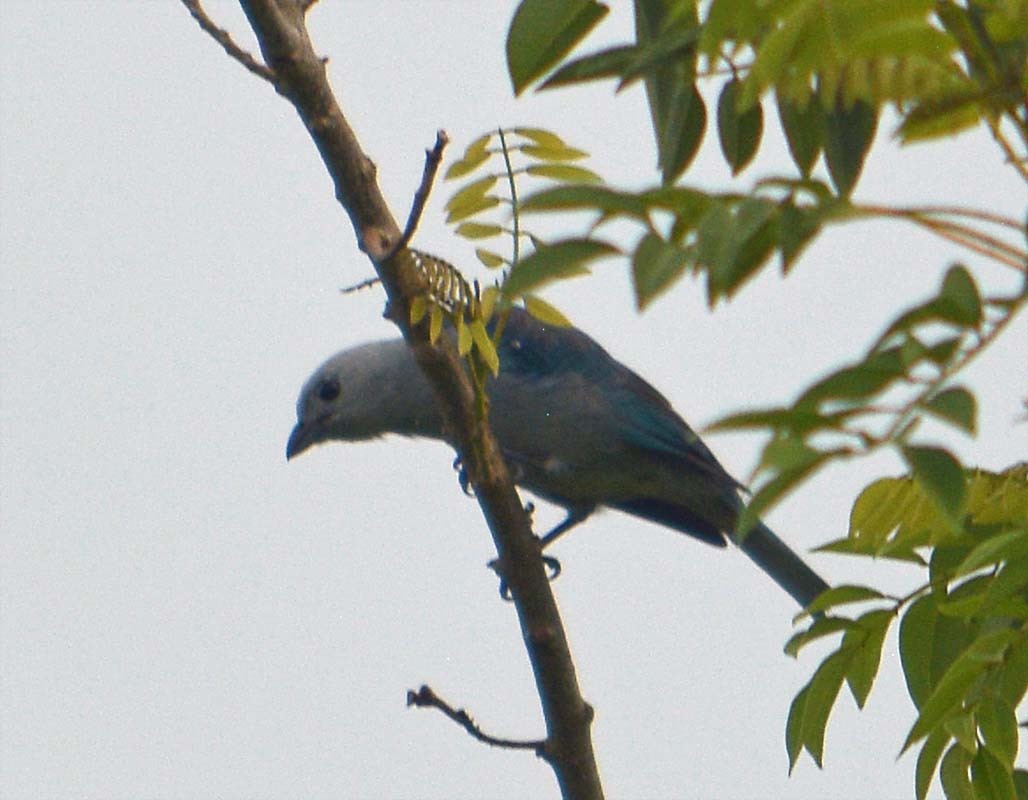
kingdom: Animalia
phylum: Chordata
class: Aves
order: Passeriformes
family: Thraupidae
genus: Thraupis
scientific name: Thraupis episcopus
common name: Blue-grey tanager
